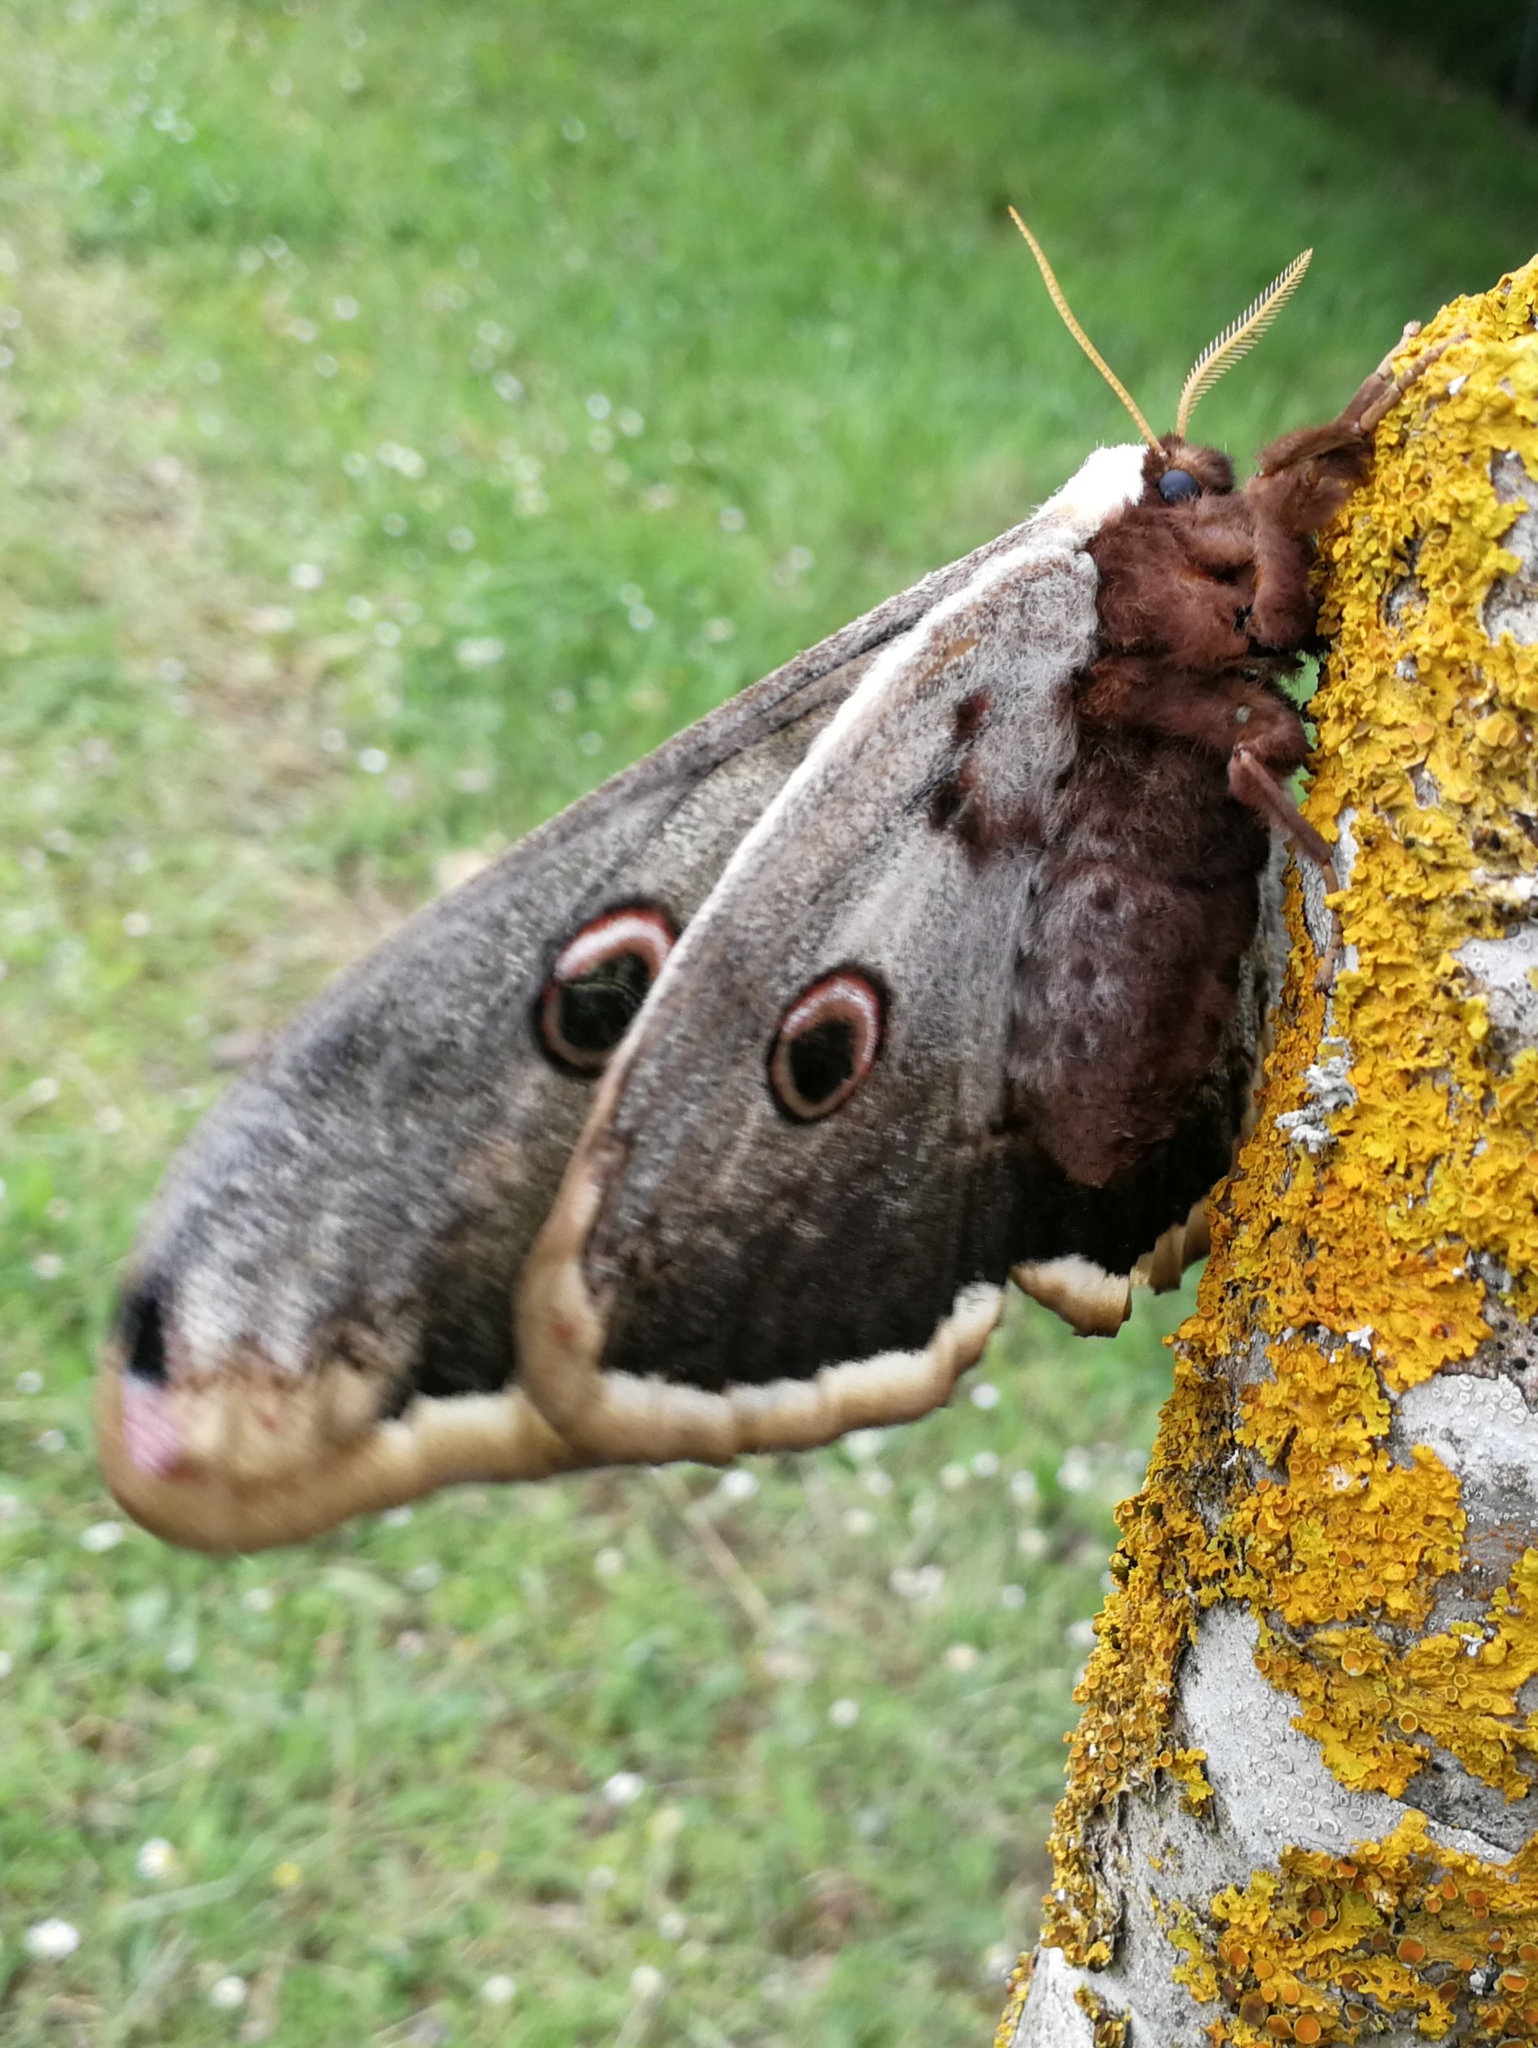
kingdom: Animalia
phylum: Arthropoda
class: Insecta
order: Lepidoptera
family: Saturniidae
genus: Saturnia
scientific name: Saturnia pyri
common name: Great peacock moth
